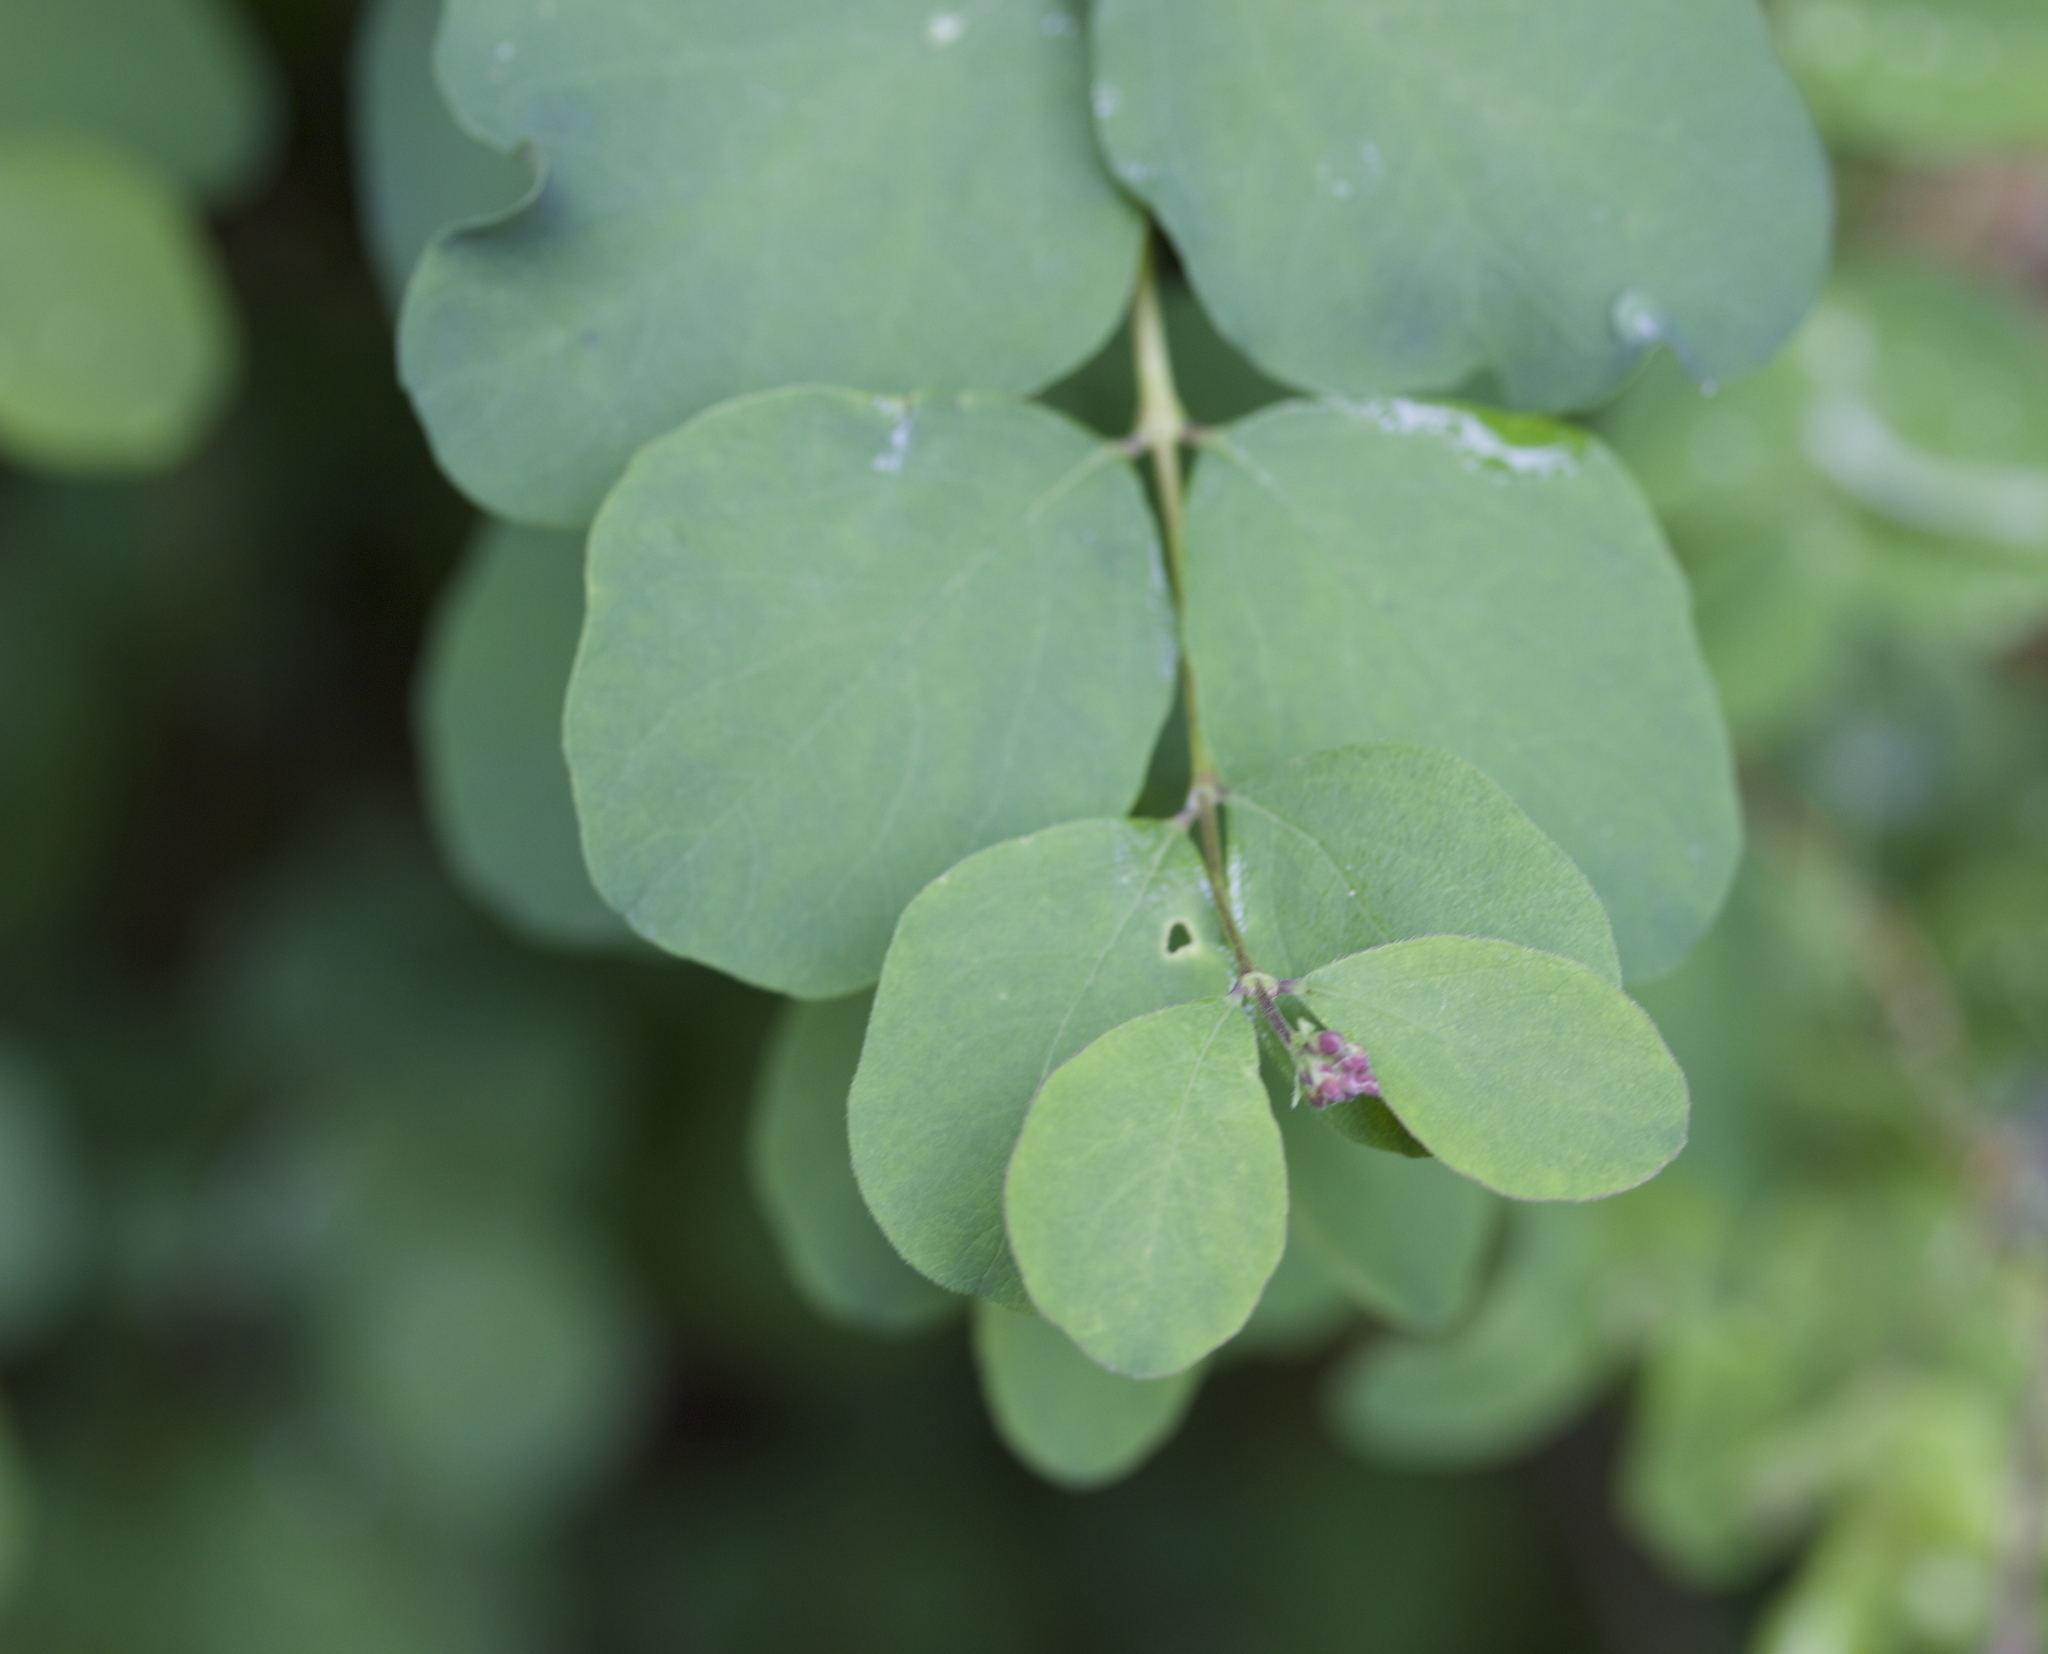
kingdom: Plantae
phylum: Tracheophyta
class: Magnoliopsida
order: Dipsacales
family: Caprifoliaceae
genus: Symphoricarpos
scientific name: Symphoricarpos albus
